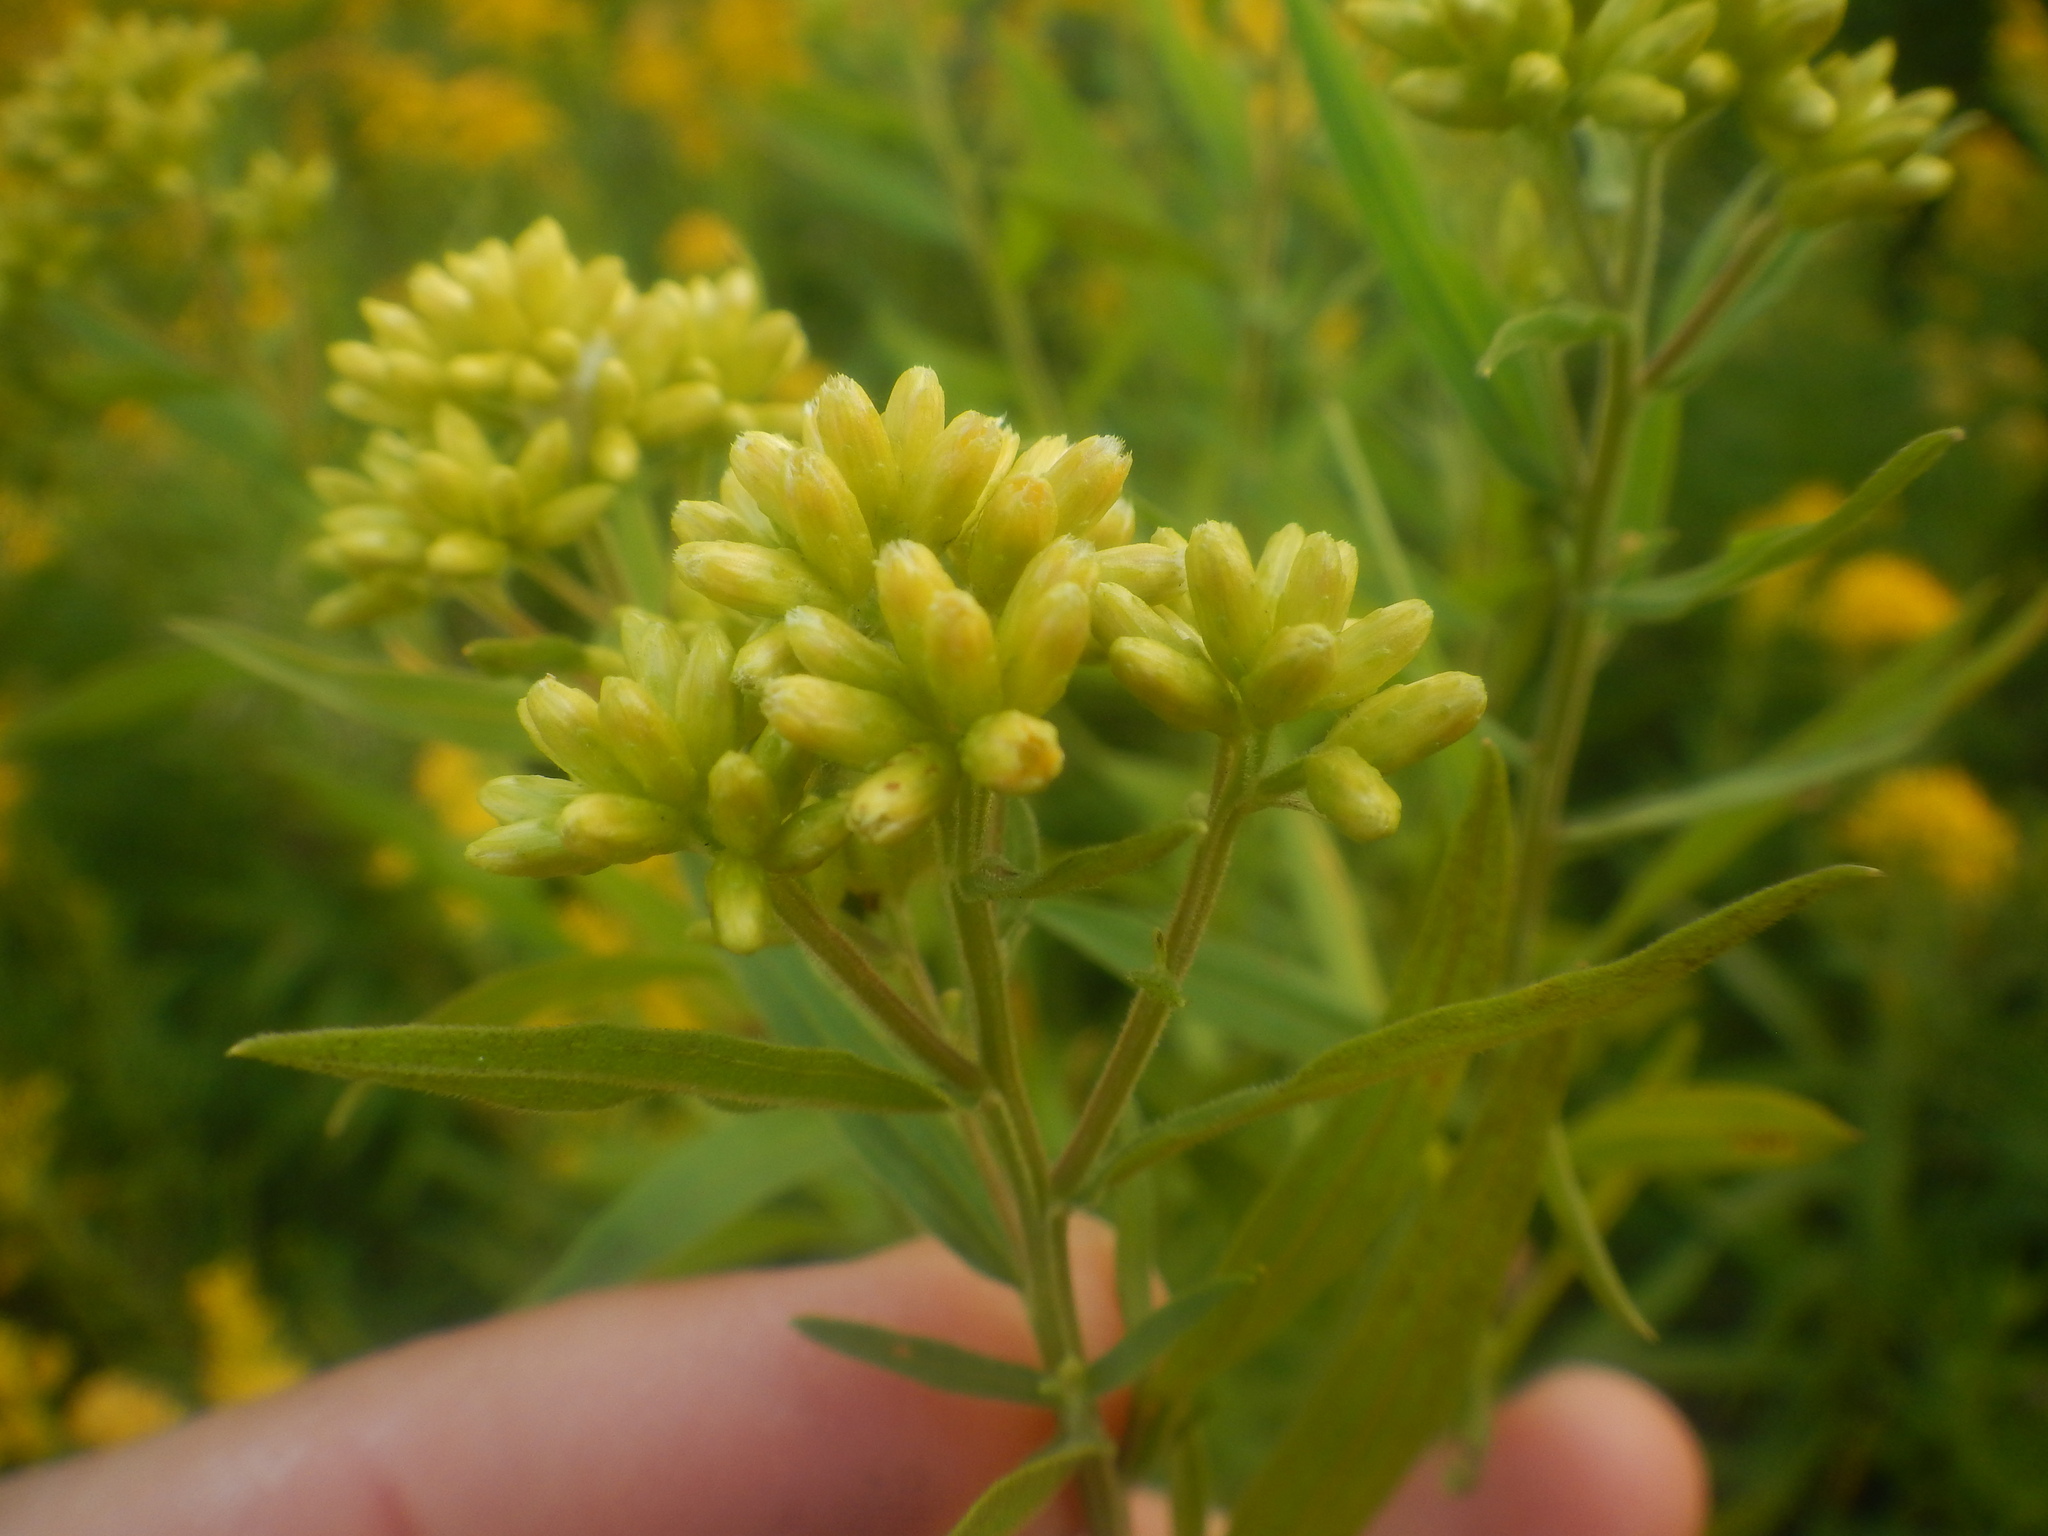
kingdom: Plantae
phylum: Tracheophyta
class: Magnoliopsida
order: Asterales
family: Asteraceae
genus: Euthamia
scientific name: Euthamia graminifolia
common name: Common goldentop
